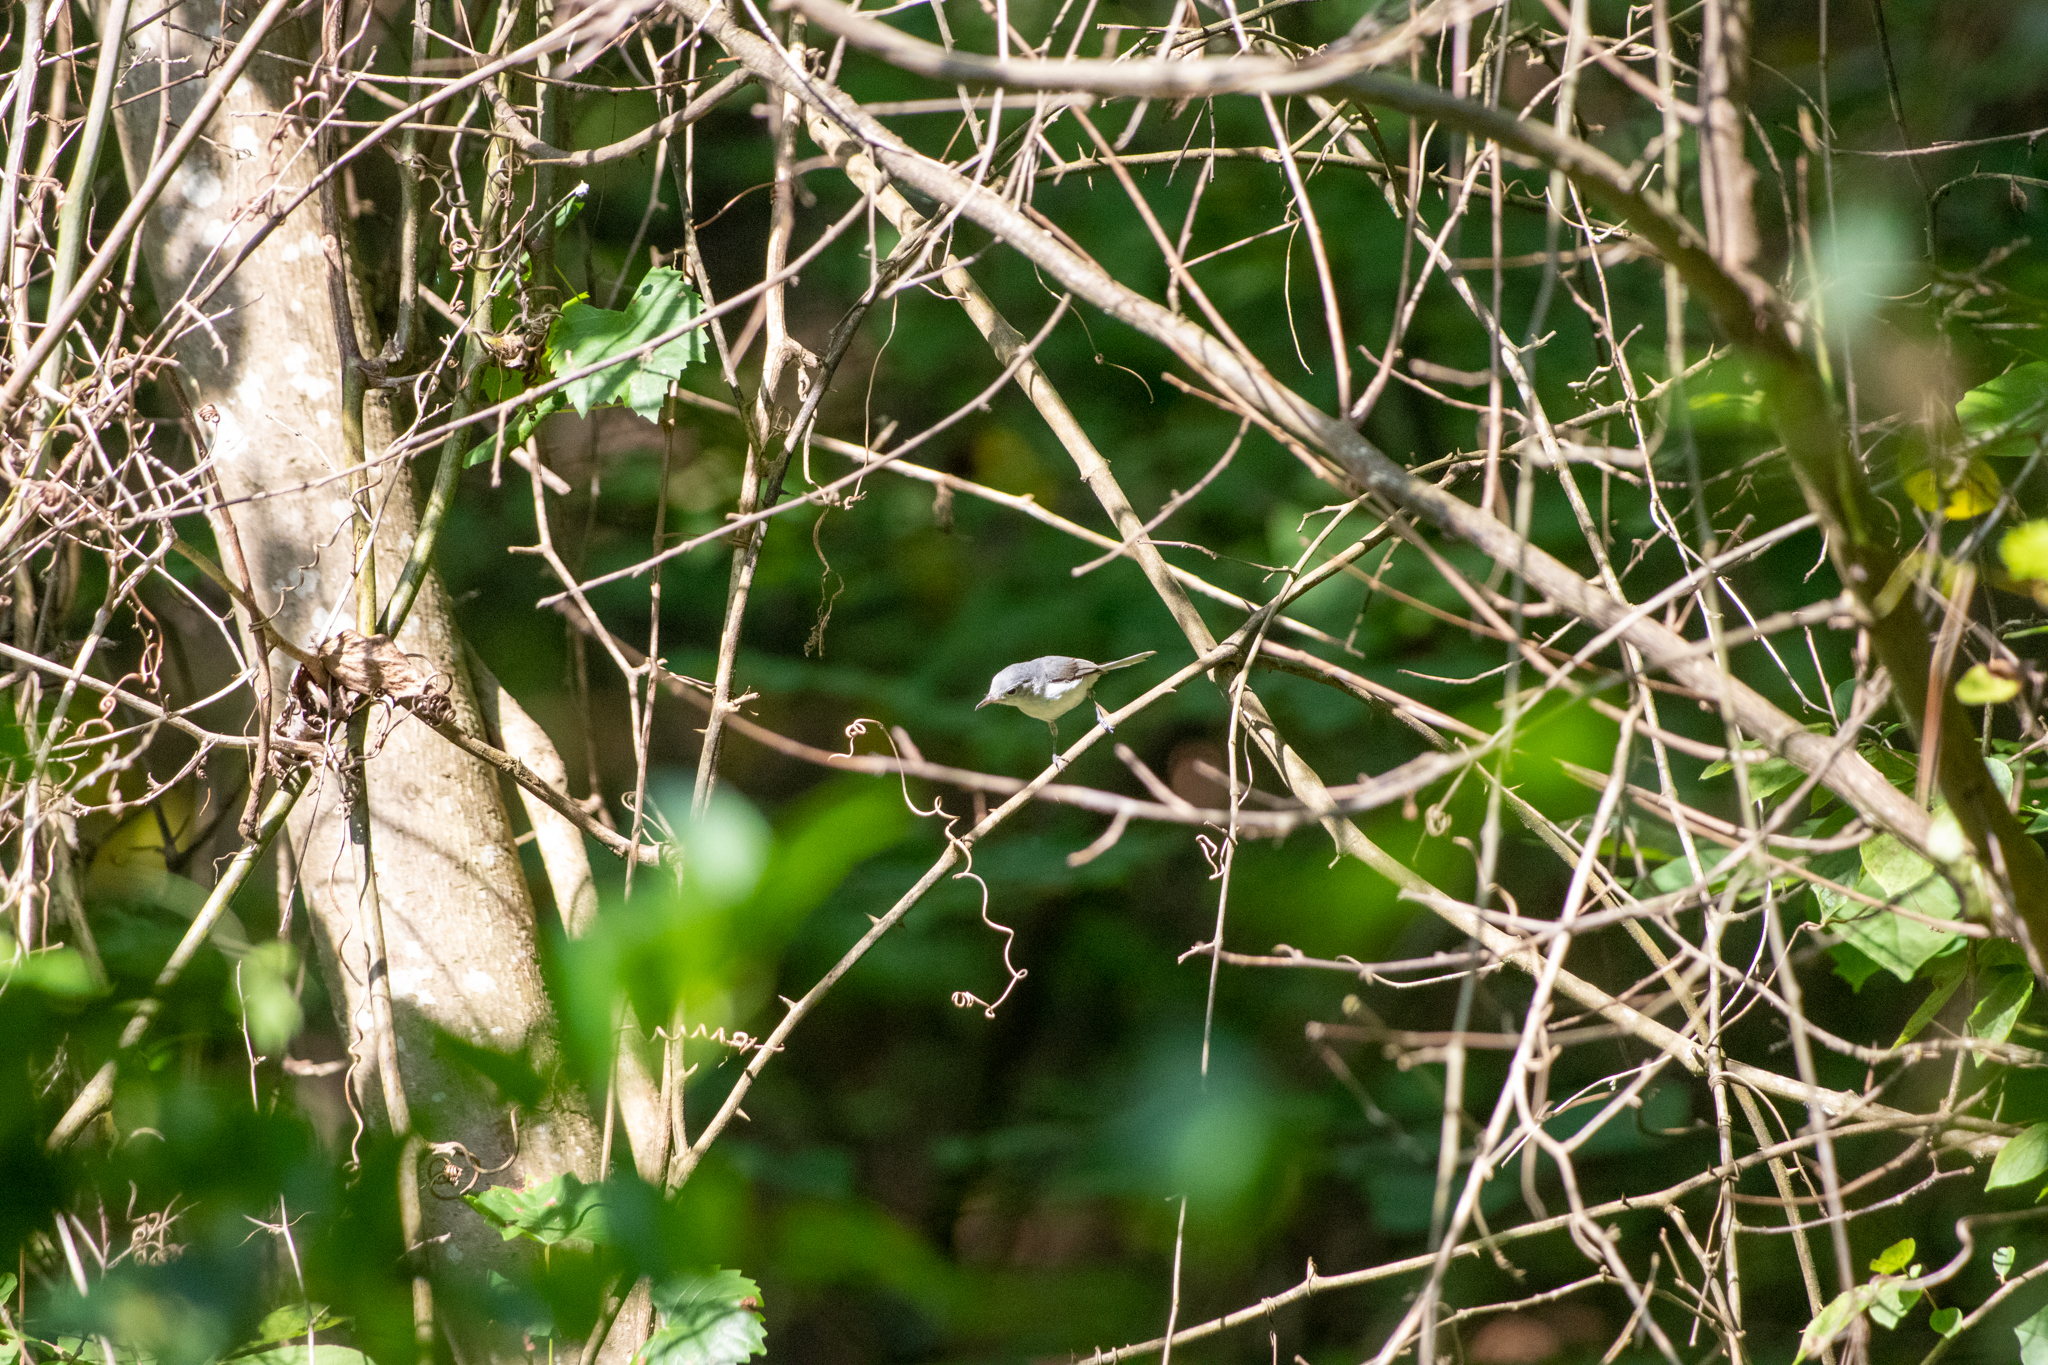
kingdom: Animalia
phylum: Chordata
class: Aves
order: Passeriformes
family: Polioptilidae
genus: Polioptila
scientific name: Polioptila caerulea
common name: Blue-gray gnatcatcher
